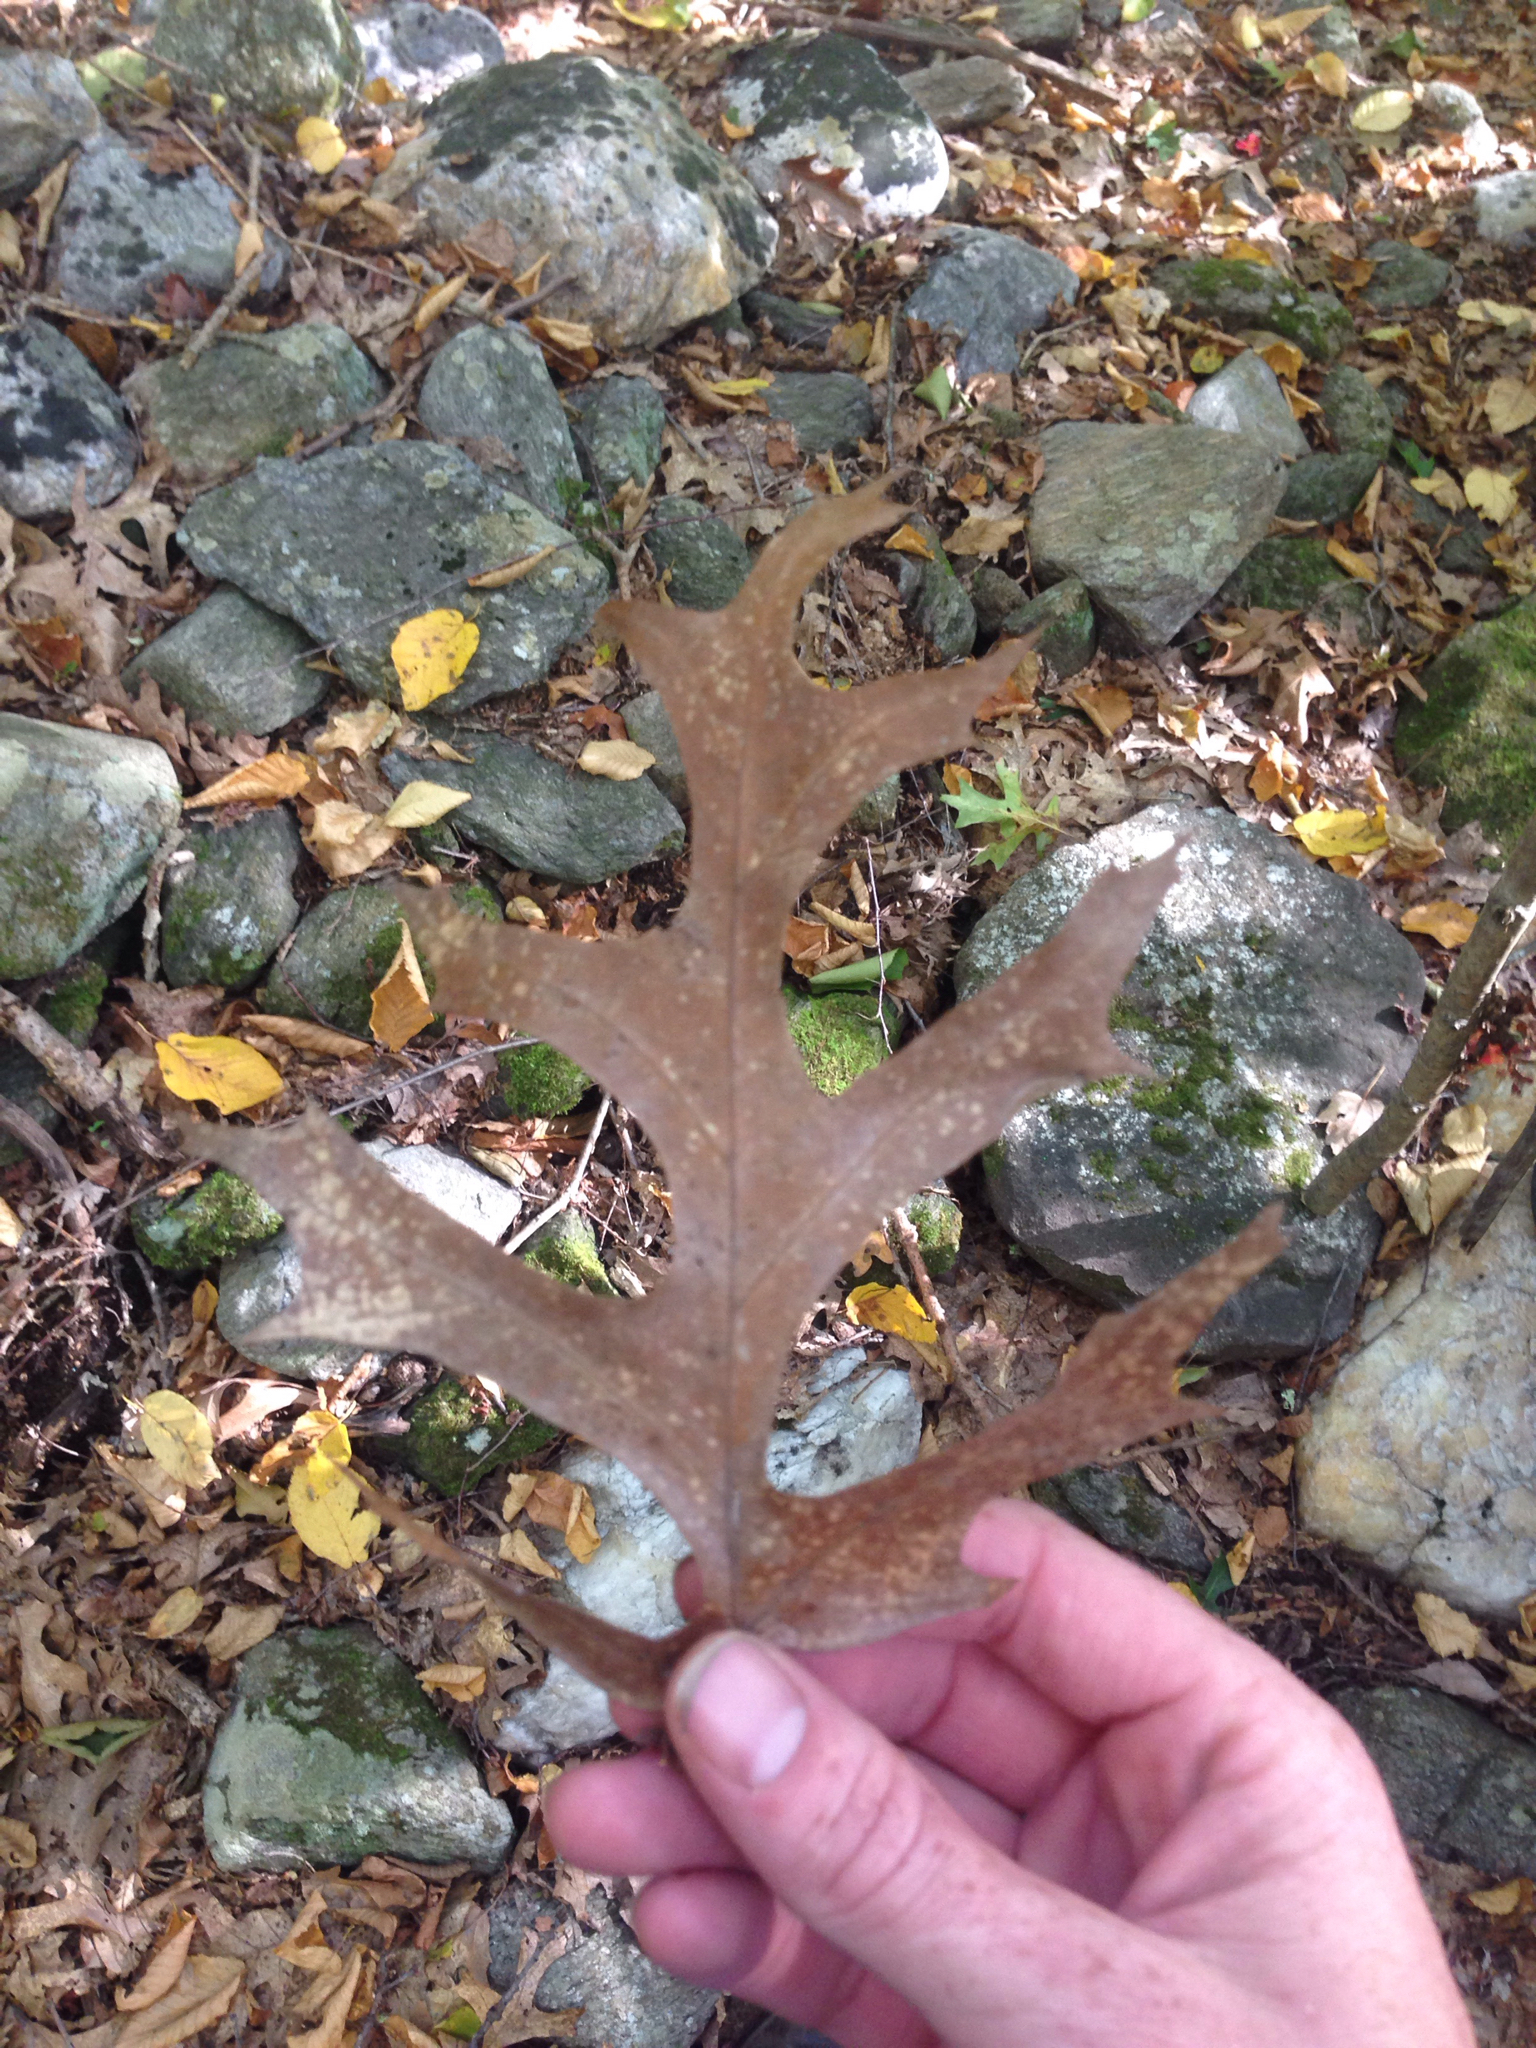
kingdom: Plantae
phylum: Tracheophyta
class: Magnoliopsida
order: Fagales
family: Fagaceae
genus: Quercus
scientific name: Quercus coccinea
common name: Scarlet oak
